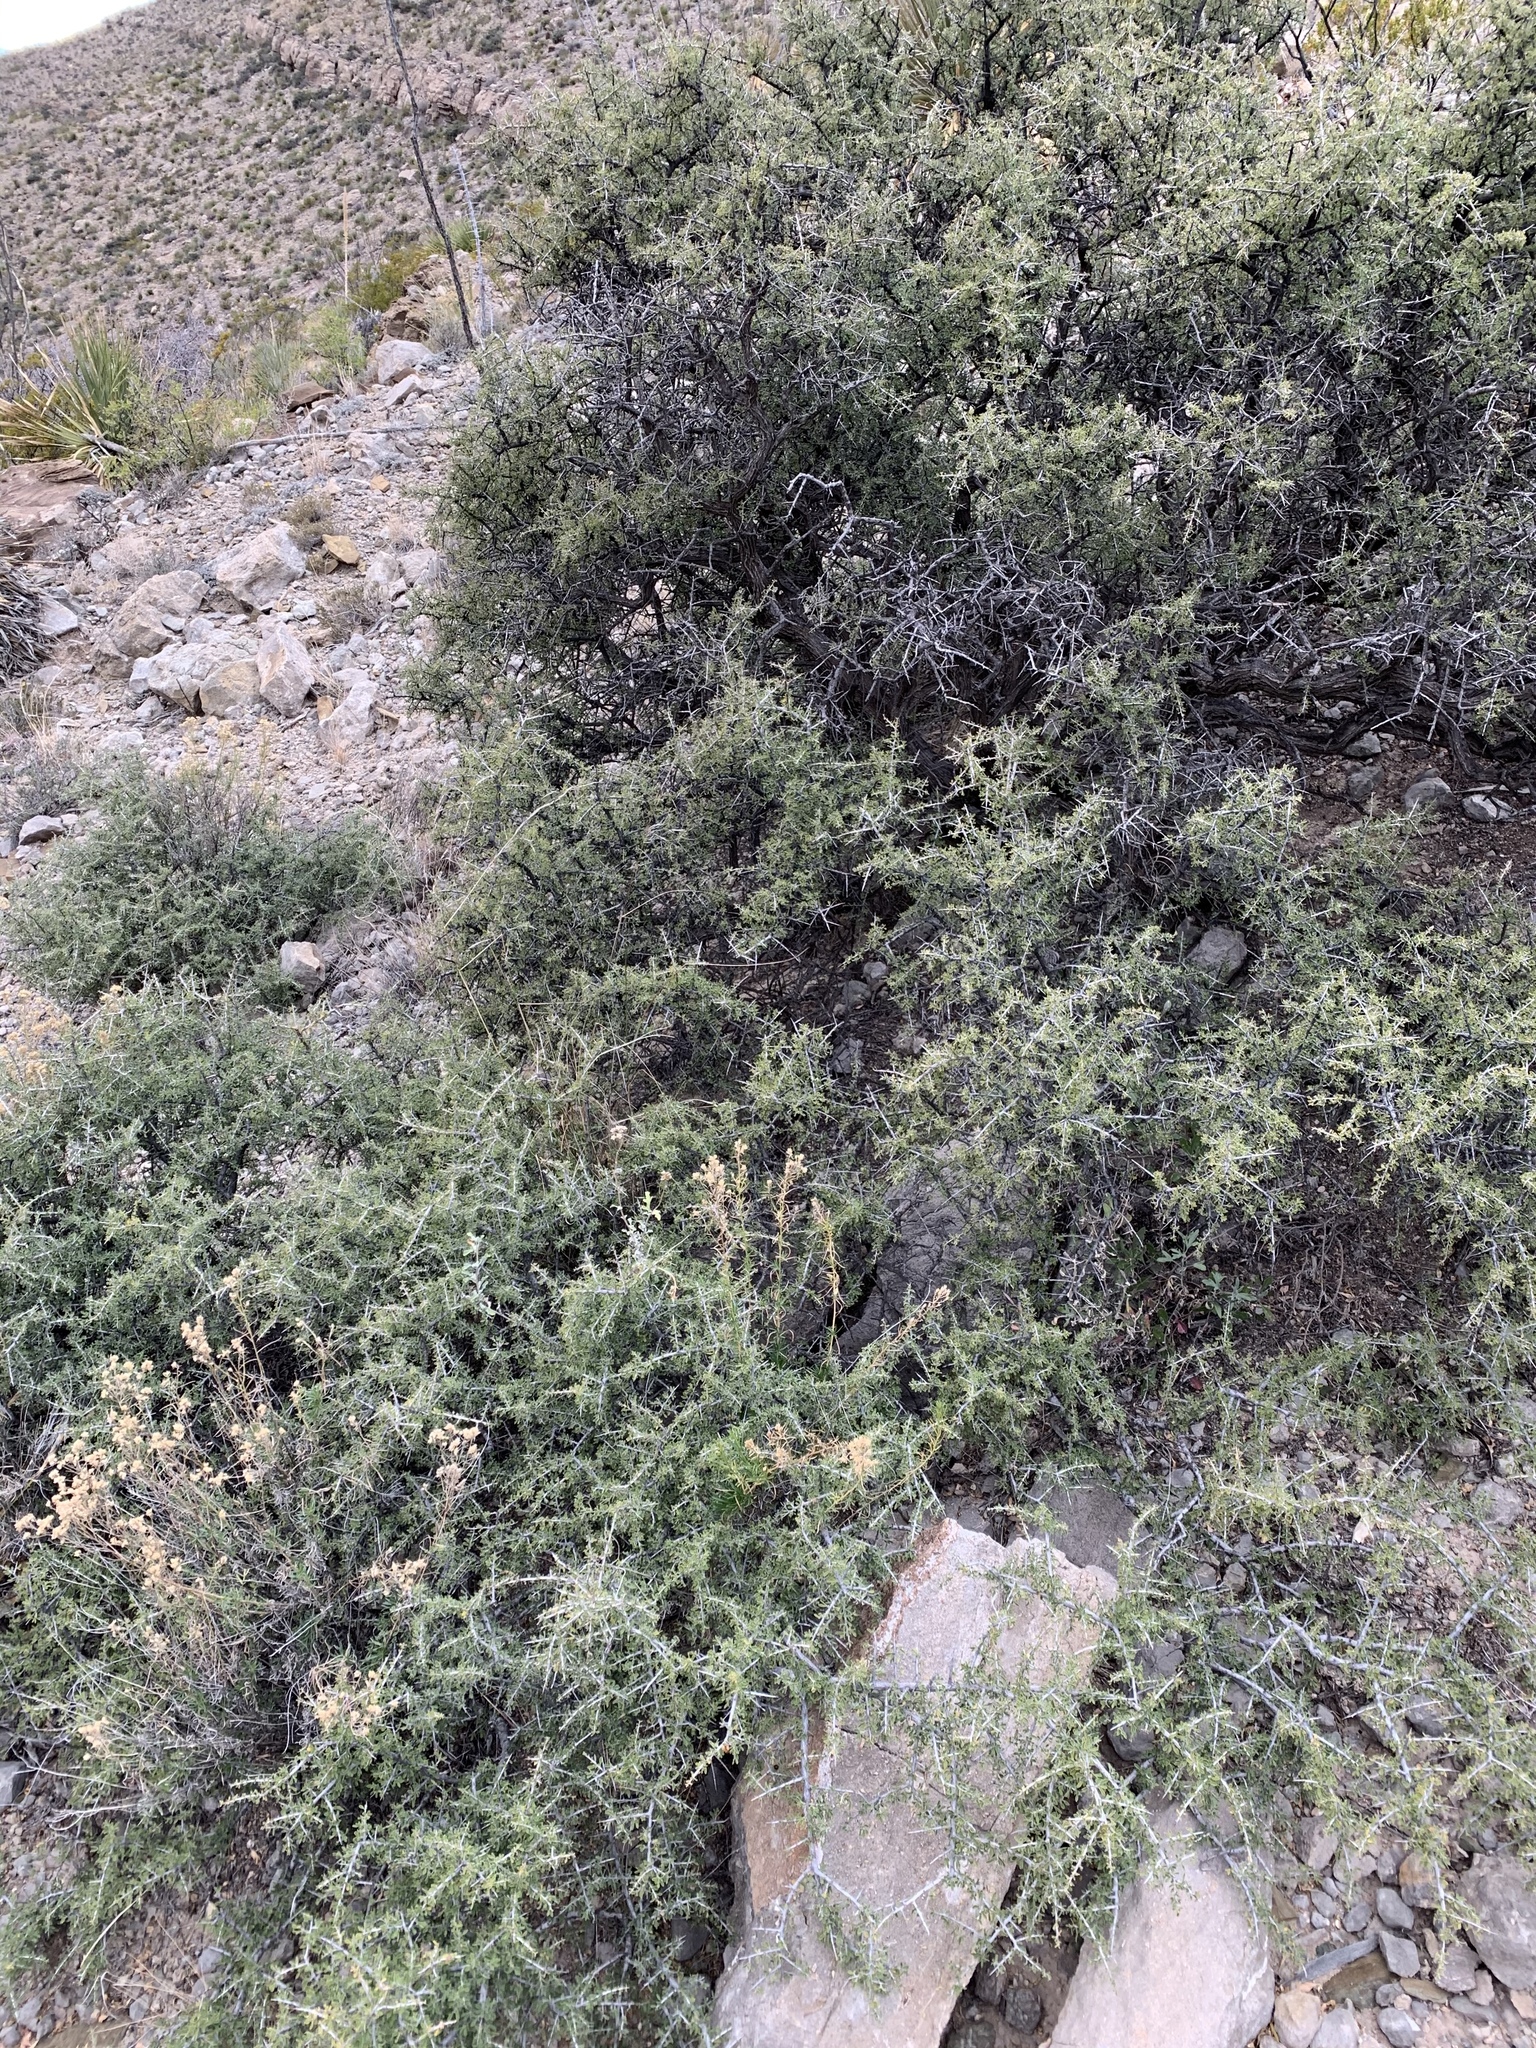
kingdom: Plantae
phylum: Tracheophyta
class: Magnoliopsida
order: Rosales
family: Rhamnaceae
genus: Condalia
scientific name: Condalia warnockii
